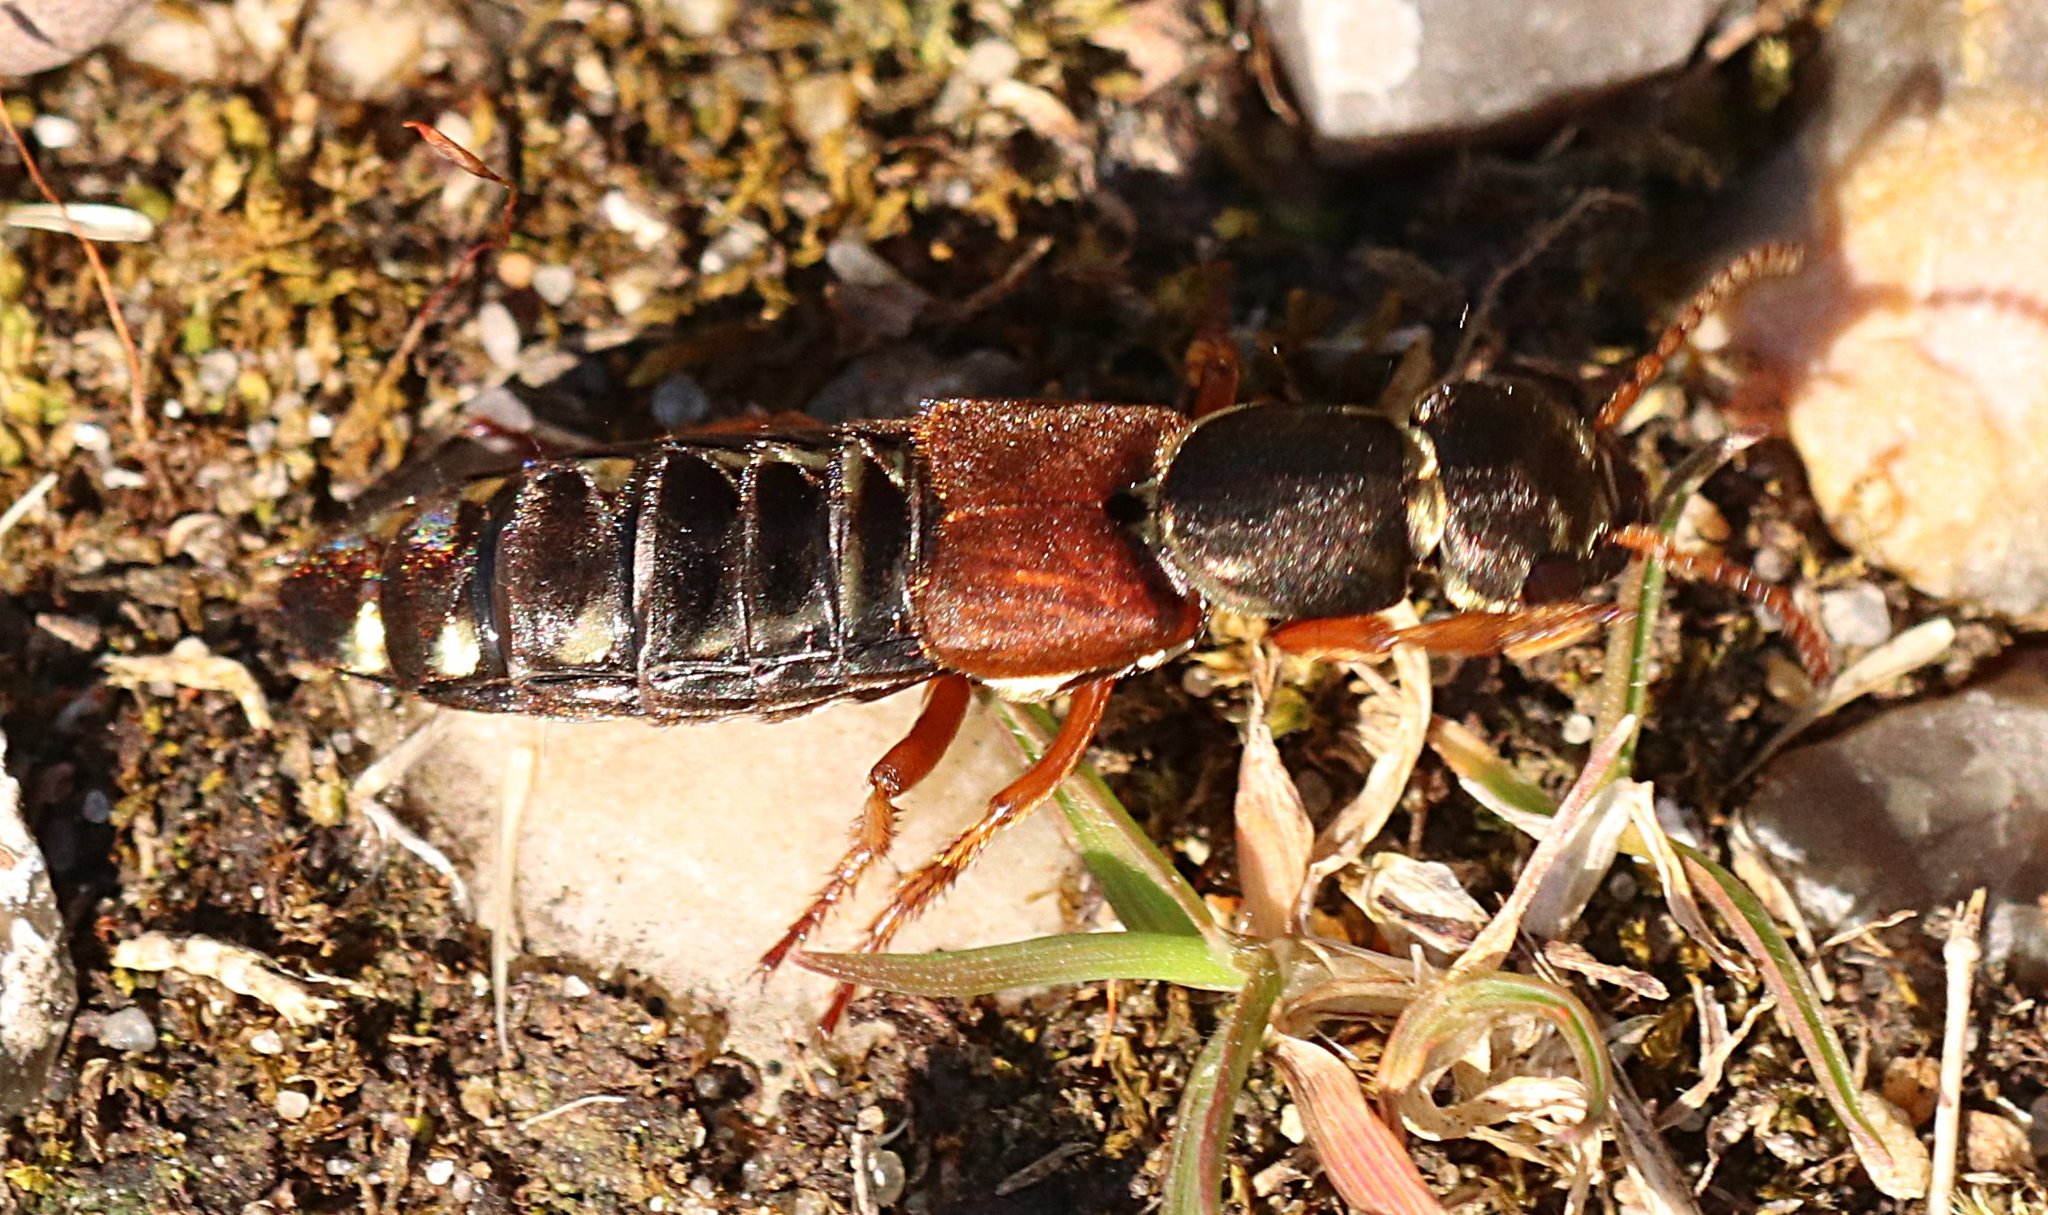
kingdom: Animalia
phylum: Arthropoda
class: Insecta
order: Coleoptera
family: Staphylinidae
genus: Staphylinus
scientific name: Staphylinus caesareus
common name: Staph beetle
